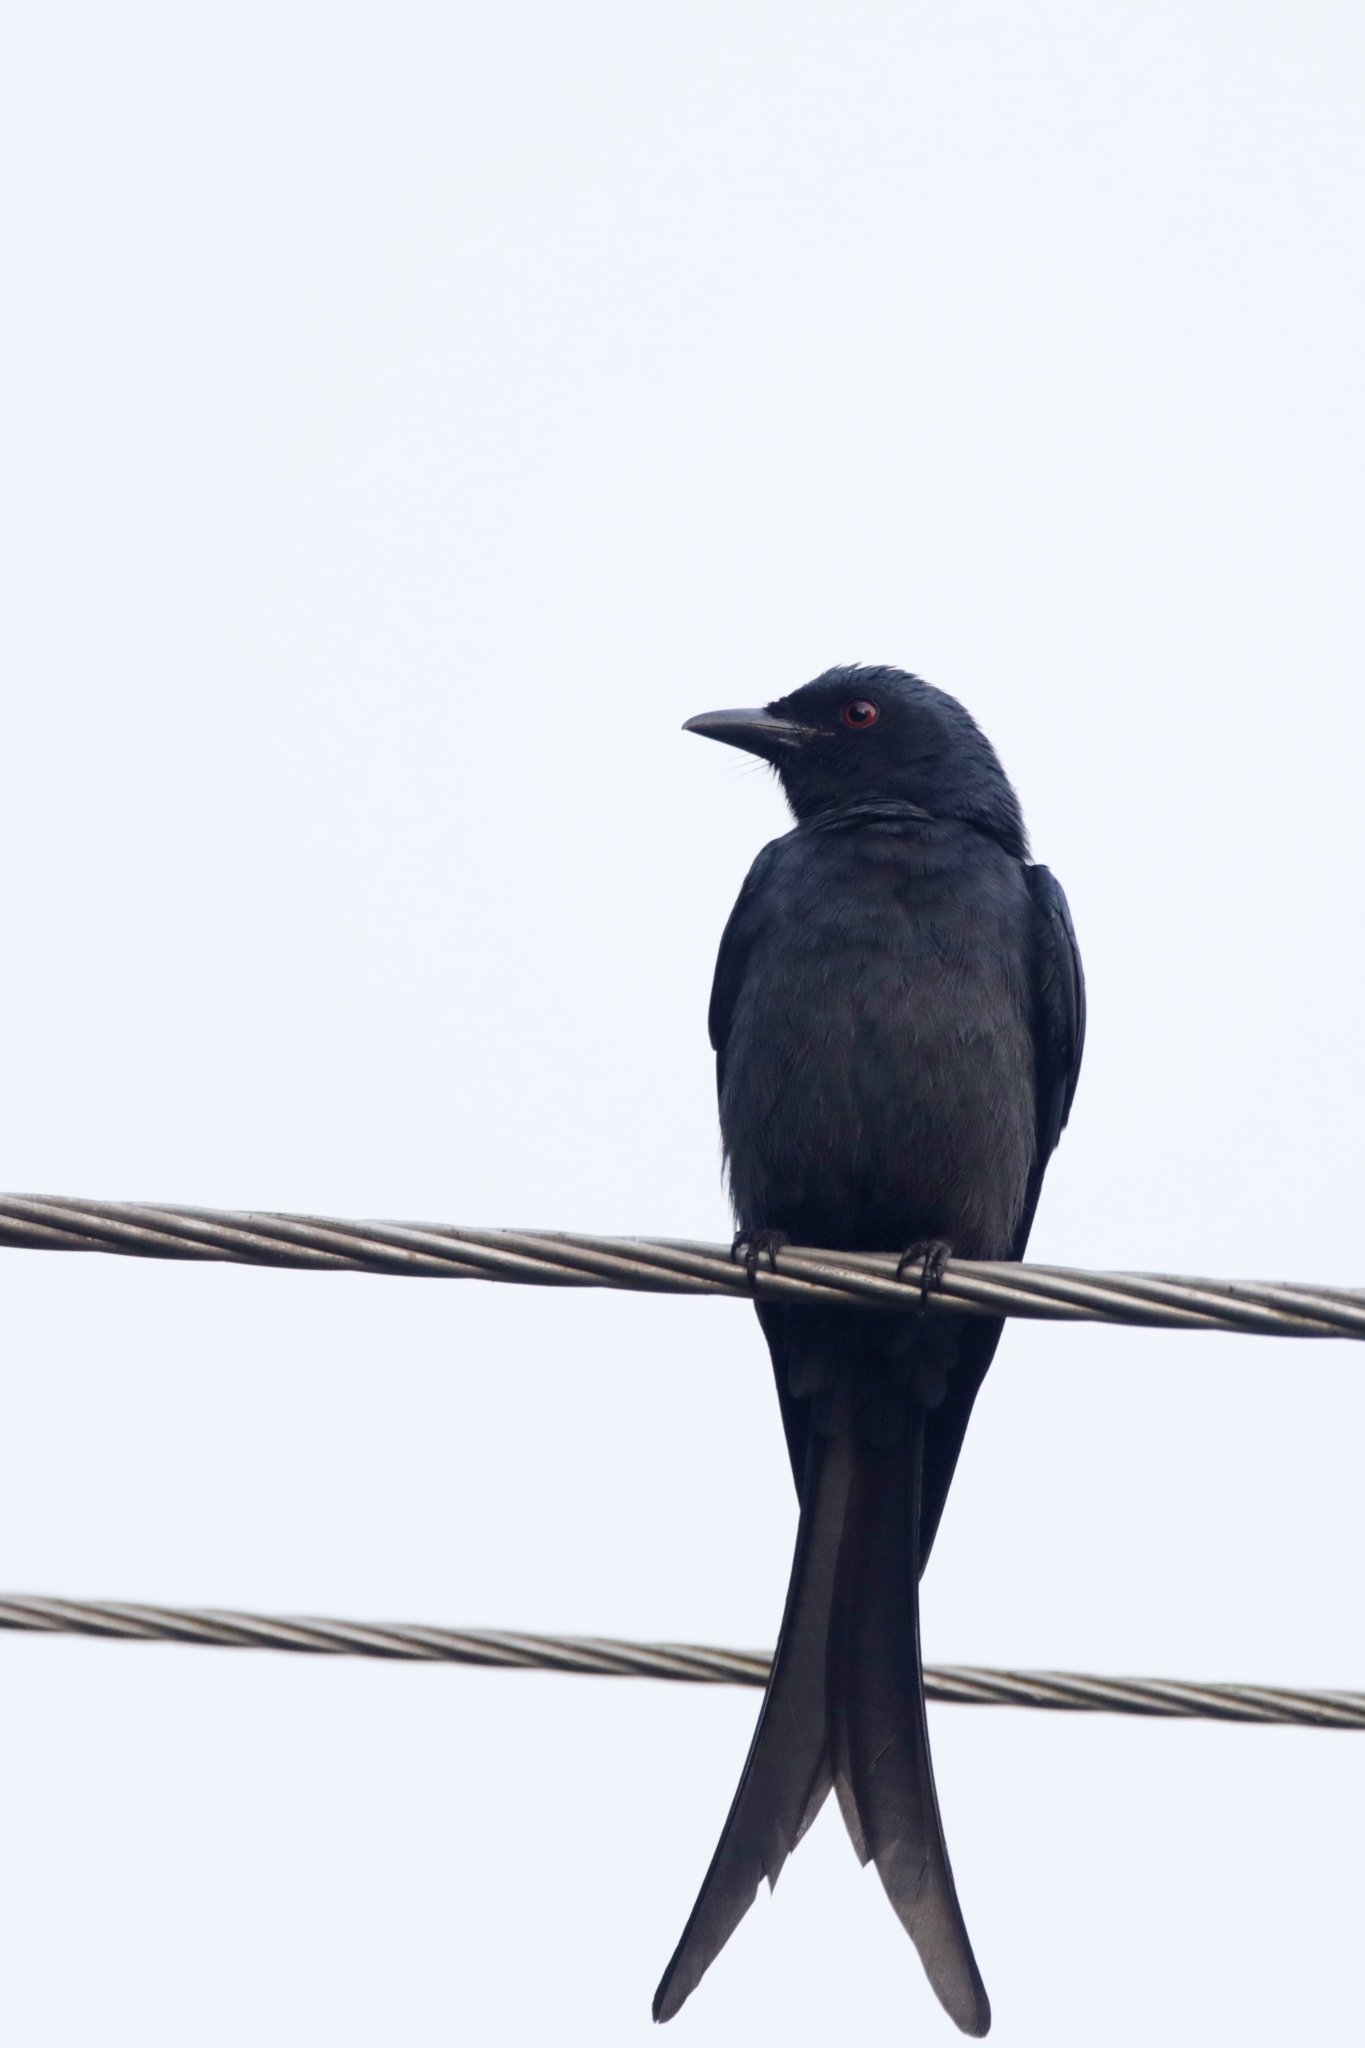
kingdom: Animalia
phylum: Chordata
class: Aves
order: Passeriformes
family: Dicruridae
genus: Dicrurus
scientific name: Dicrurus leucophaeus
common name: Ashy drongo
